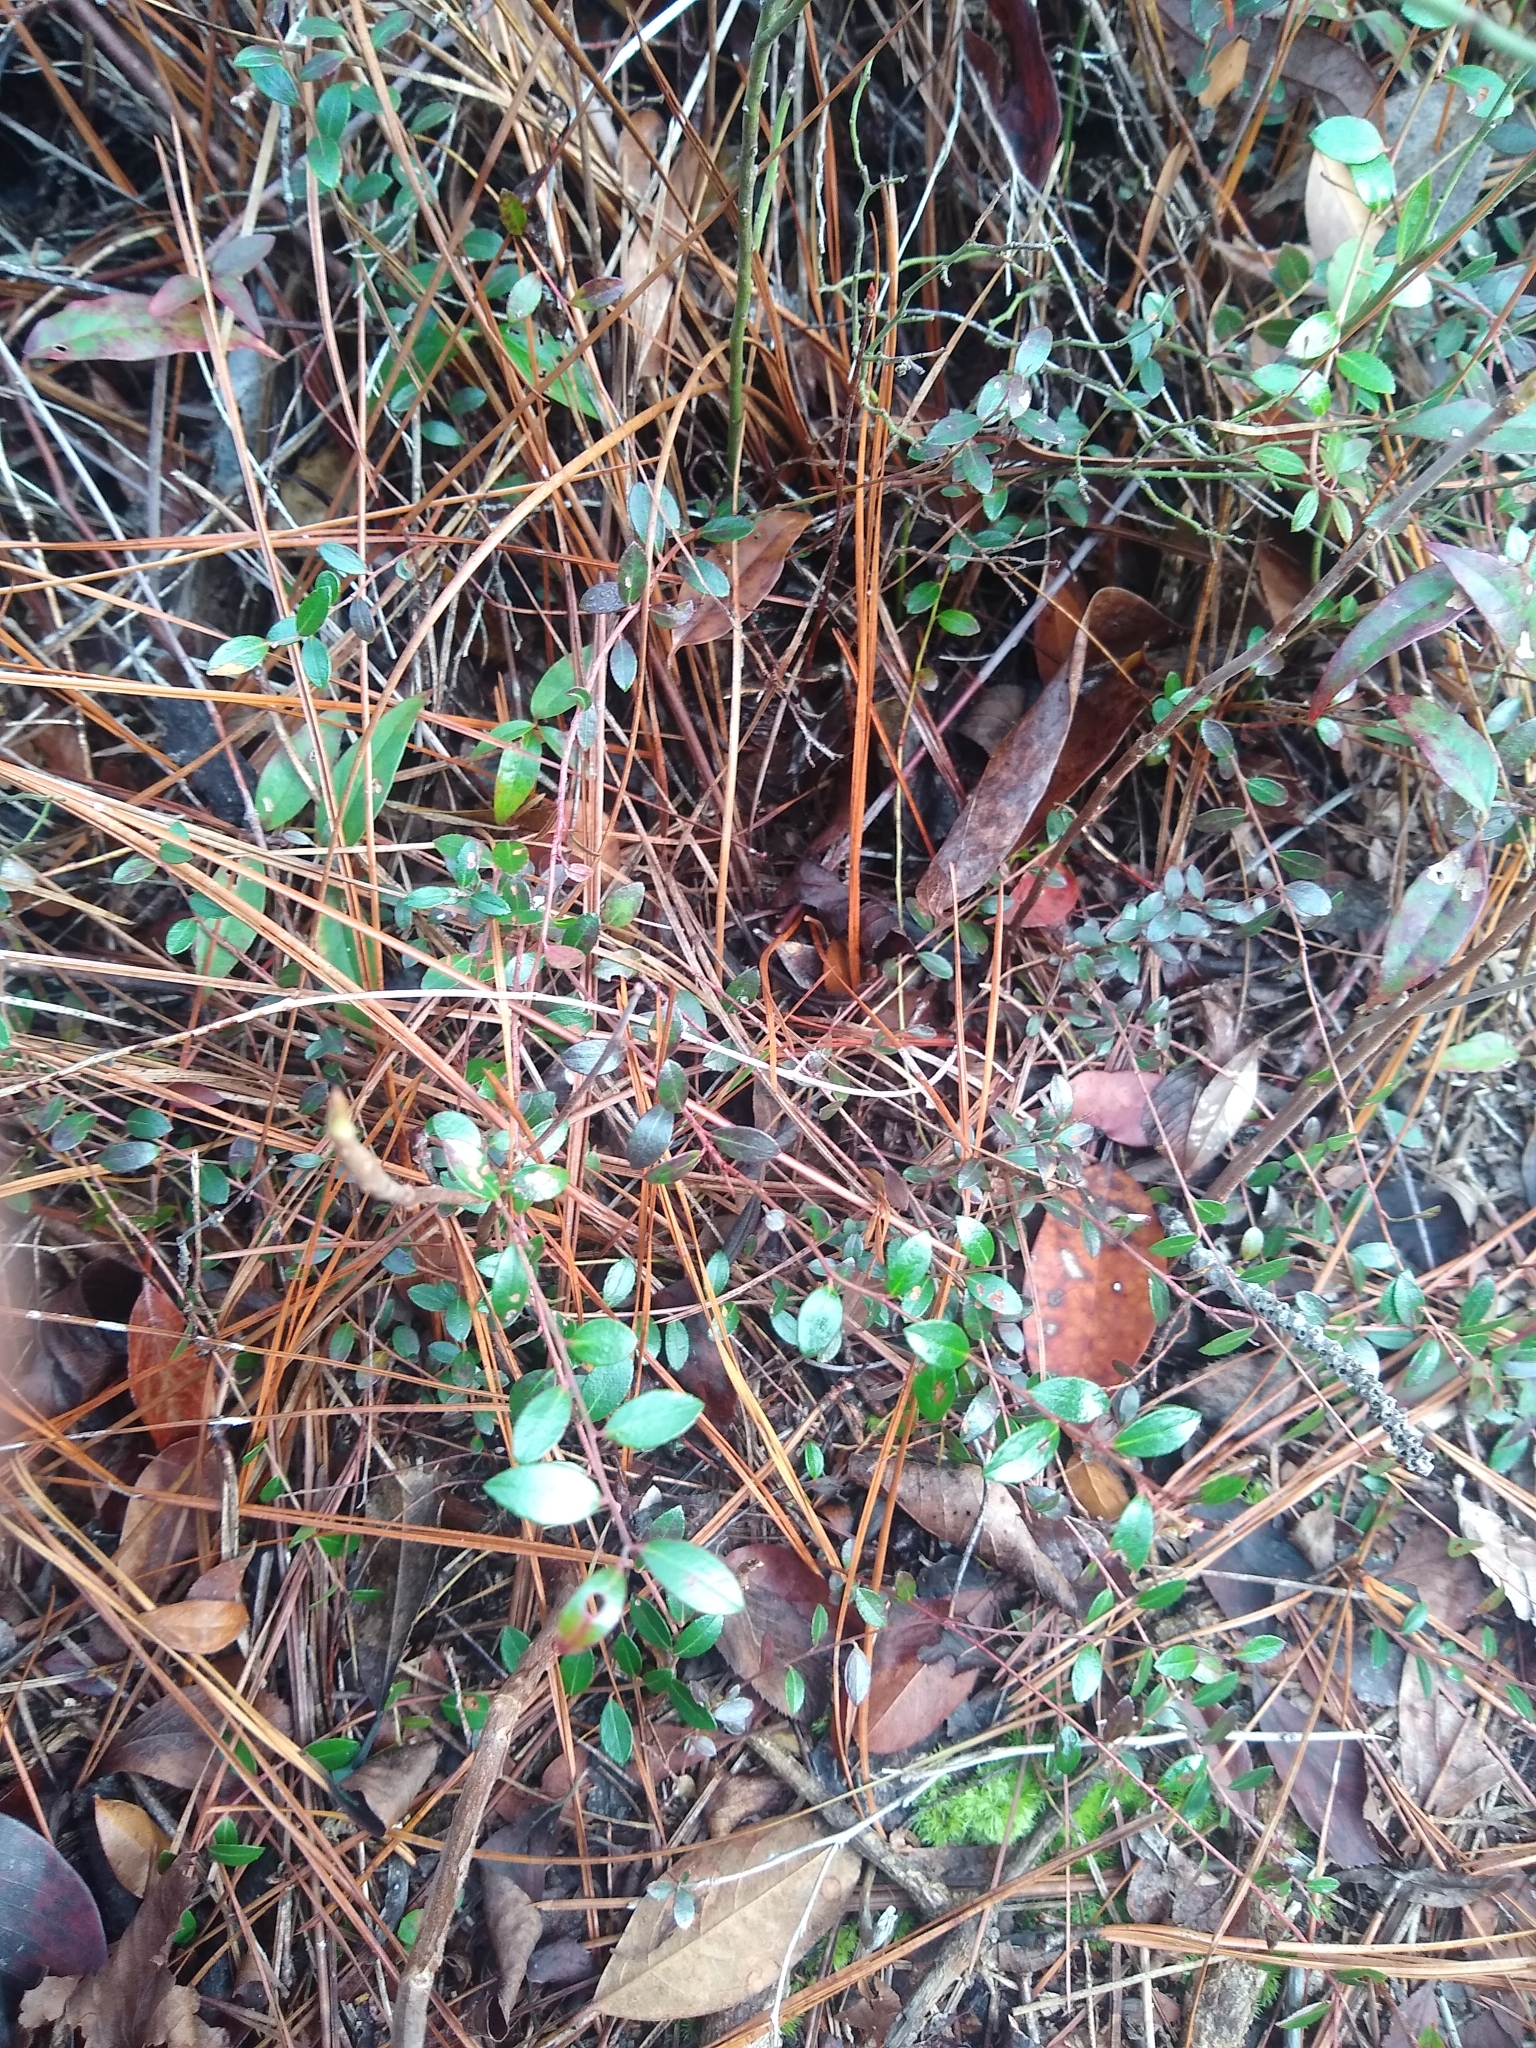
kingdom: Plantae
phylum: Tracheophyta
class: Magnoliopsida
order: Ericales
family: Ericaceae
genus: Vaccinium
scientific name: Vaccinium crassifolium
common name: Creeping blueberry
